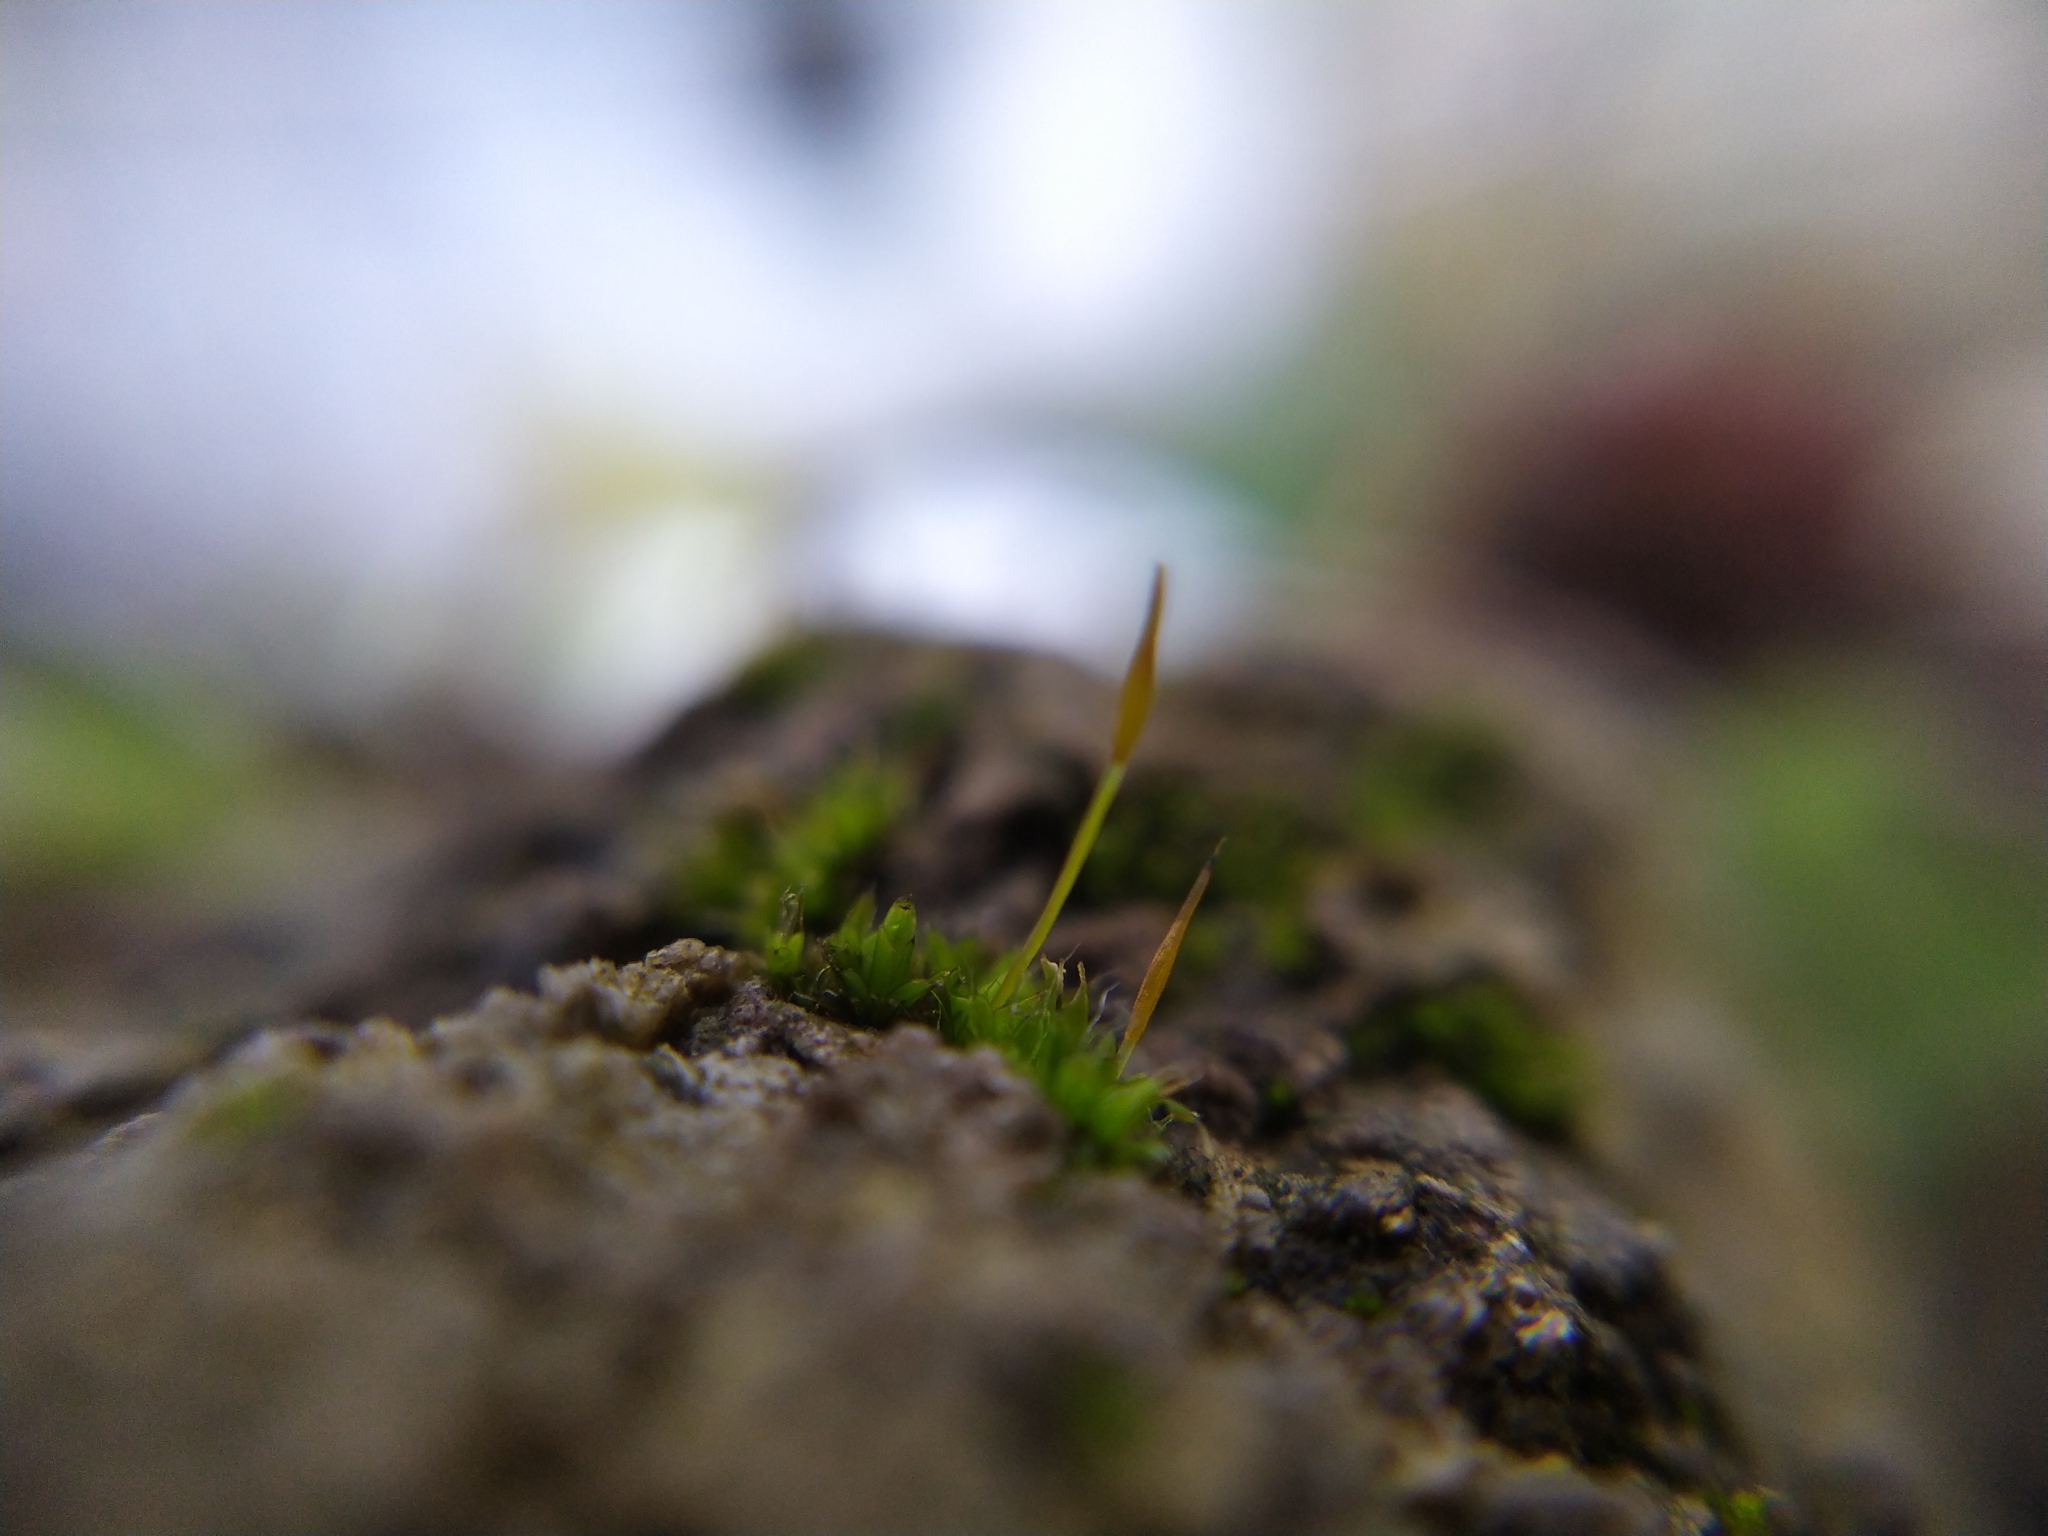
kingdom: Plantae
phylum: Bryophyta
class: Bryopsida
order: Pottiales
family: Pottiaceae
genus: Tortula
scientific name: Tortula muralis
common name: Wall screw-moss
